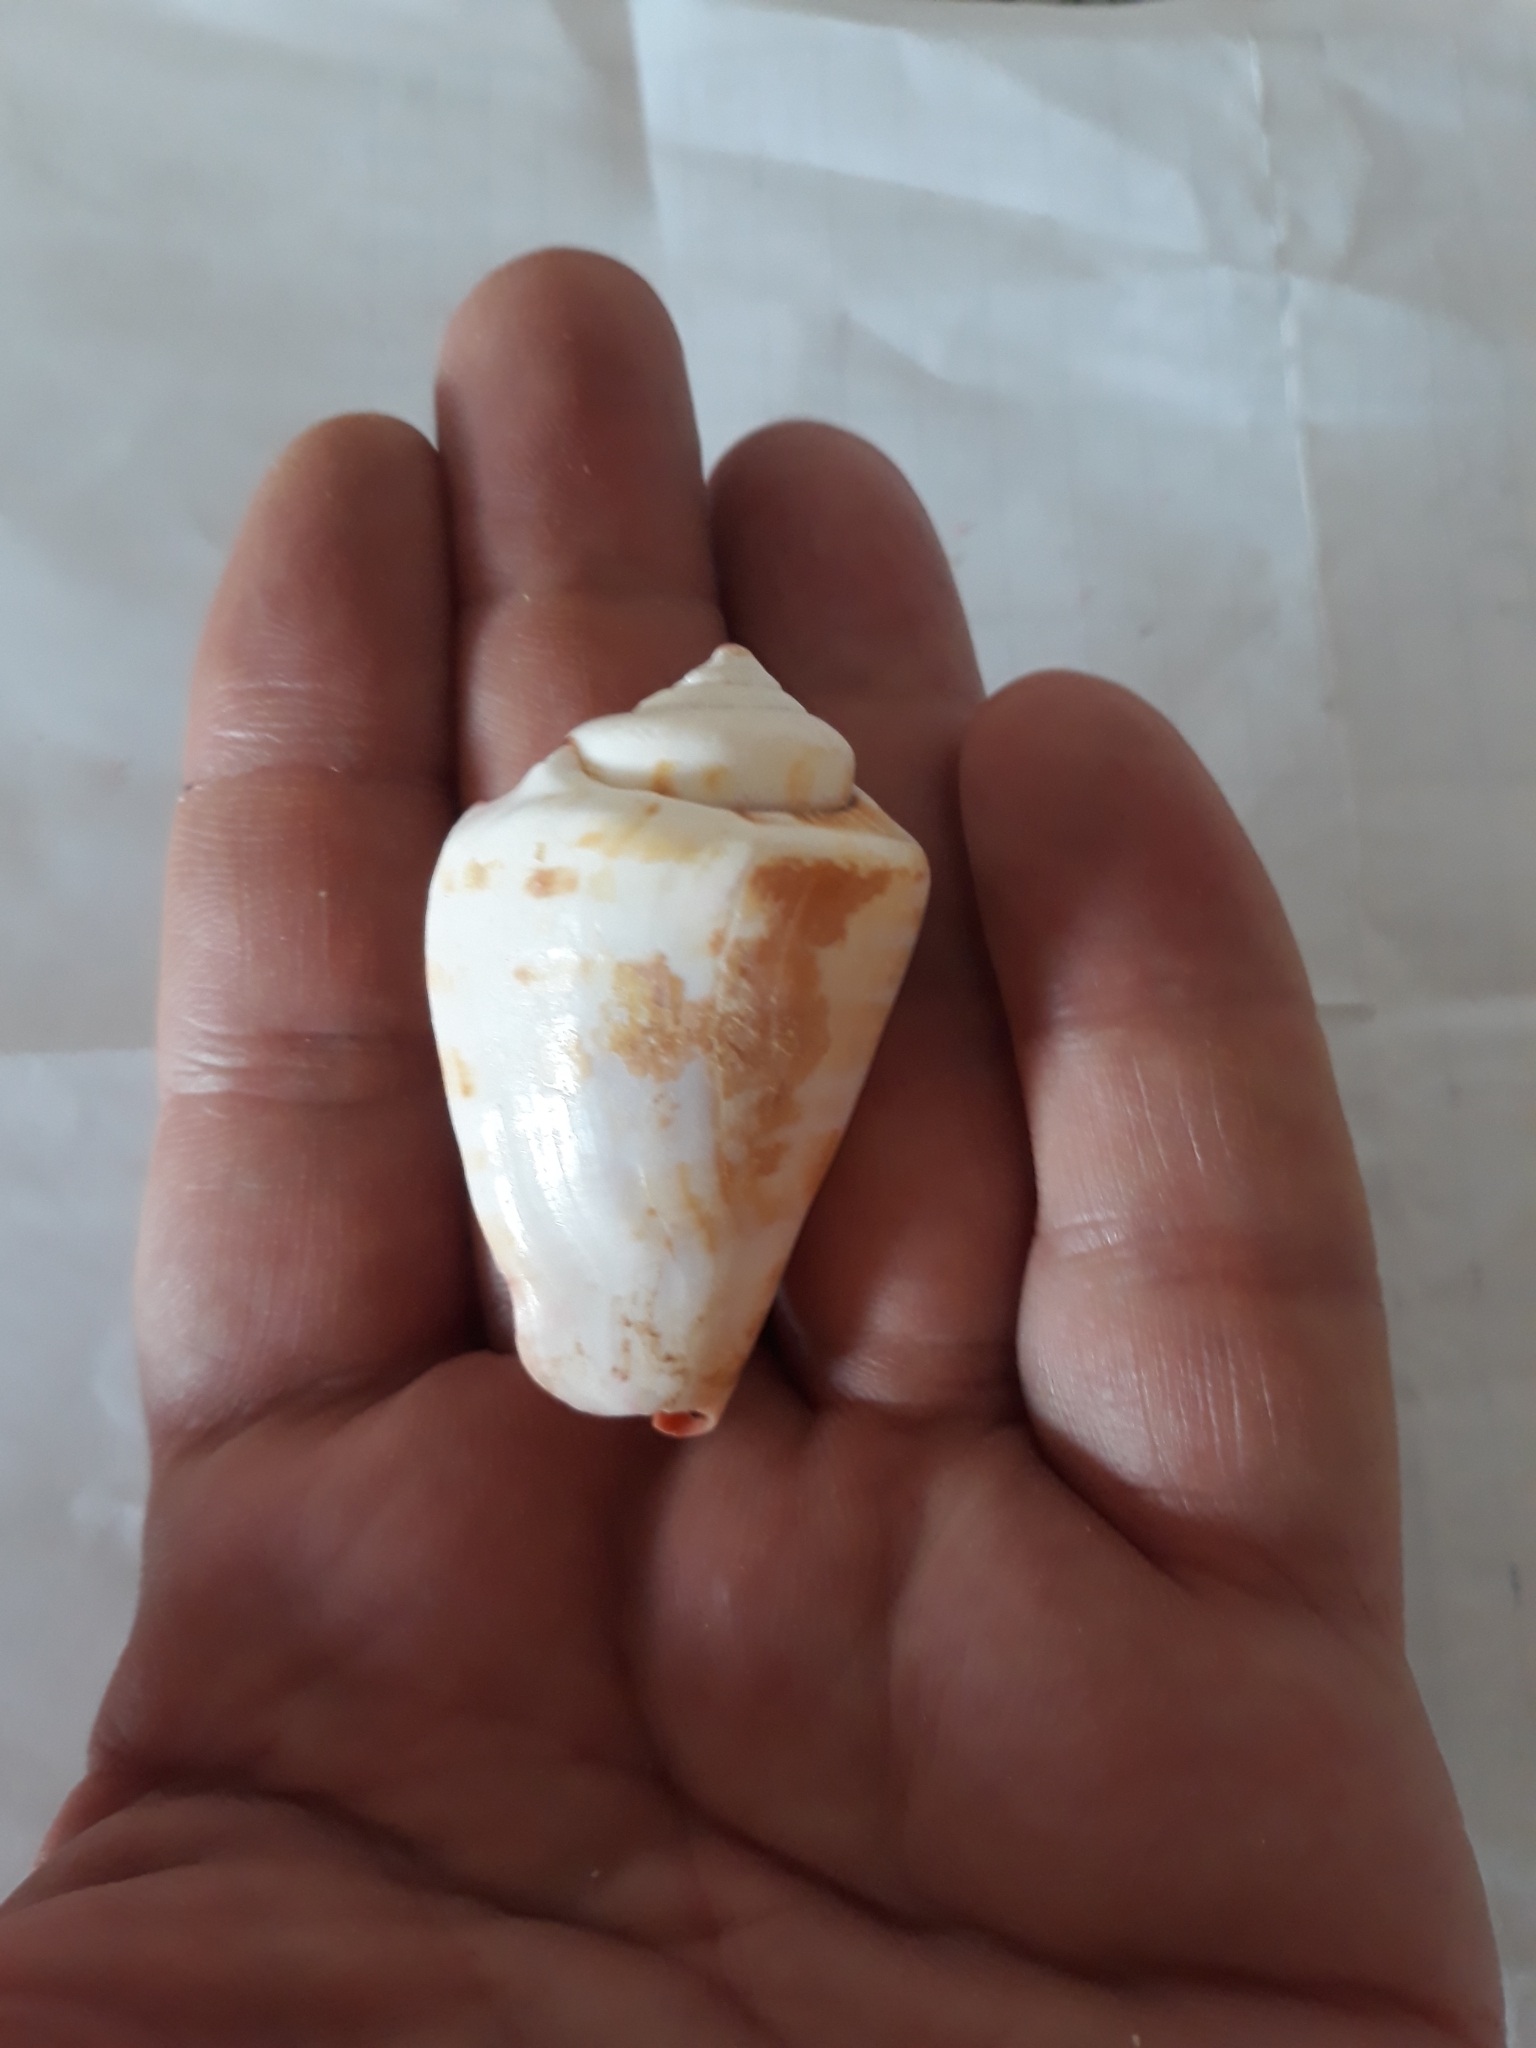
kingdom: Animalia
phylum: Mollusca
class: Gastropoda
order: Littorinimorpha
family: Strombidae
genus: Conomurex
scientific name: Conomurex luhuanus
